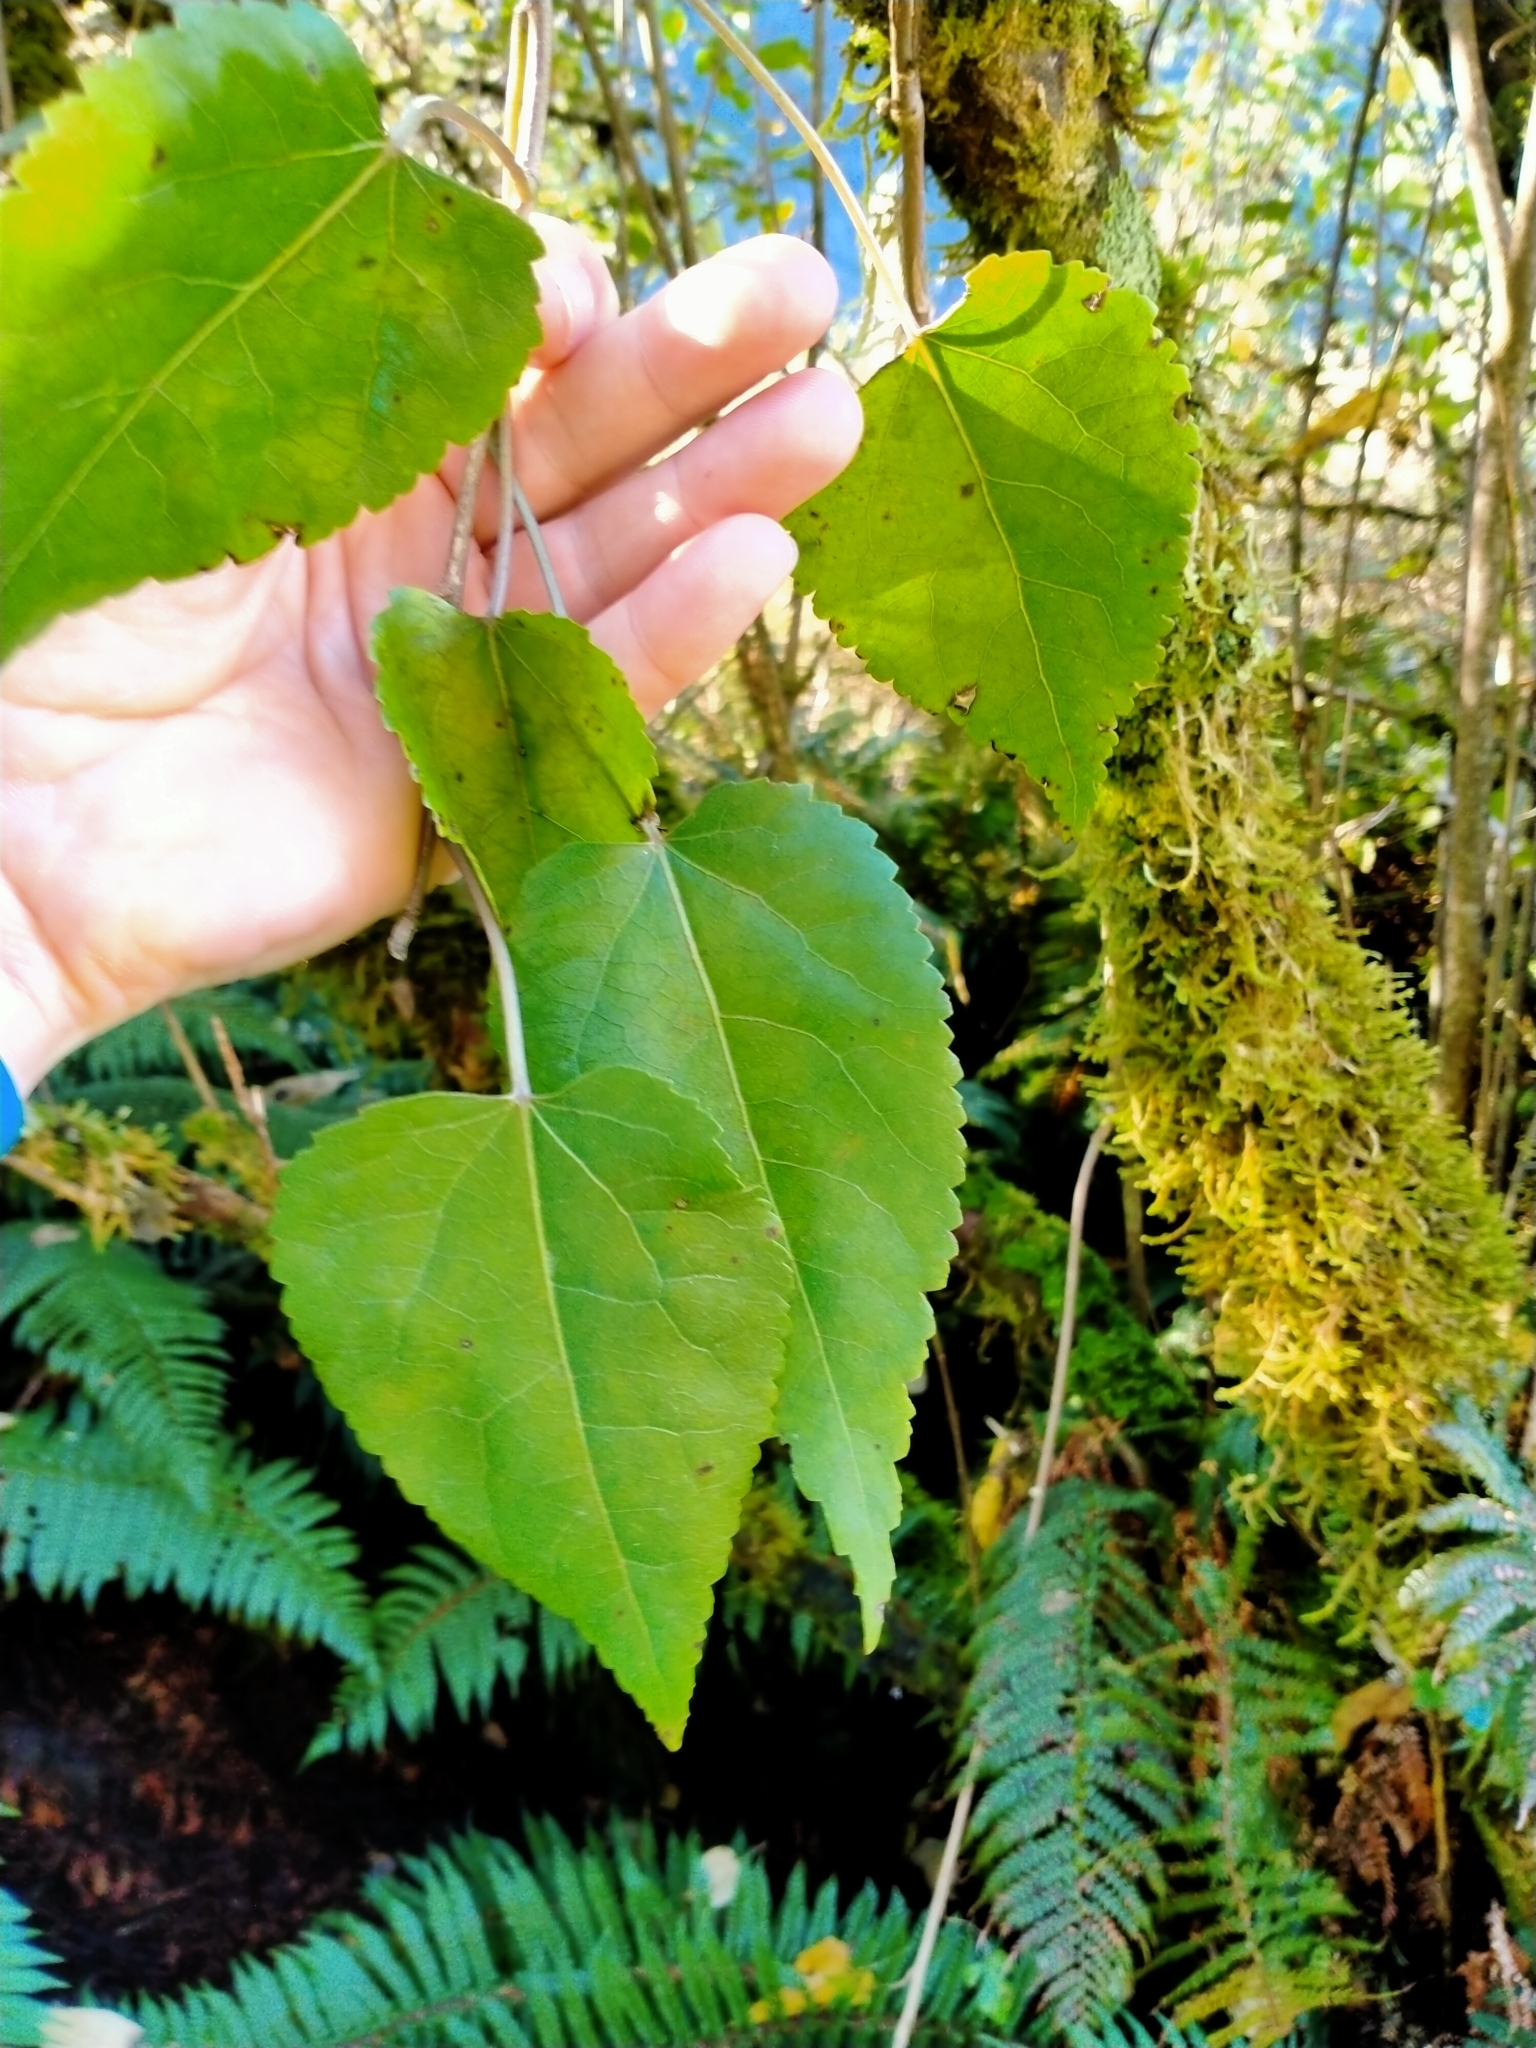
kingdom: Plantae
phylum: Tracheophyta
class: Magnoliopsida
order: Malvales
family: Malvaceae
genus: Hoheria
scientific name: Hoheria glabrata
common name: Mountain-ribbon
